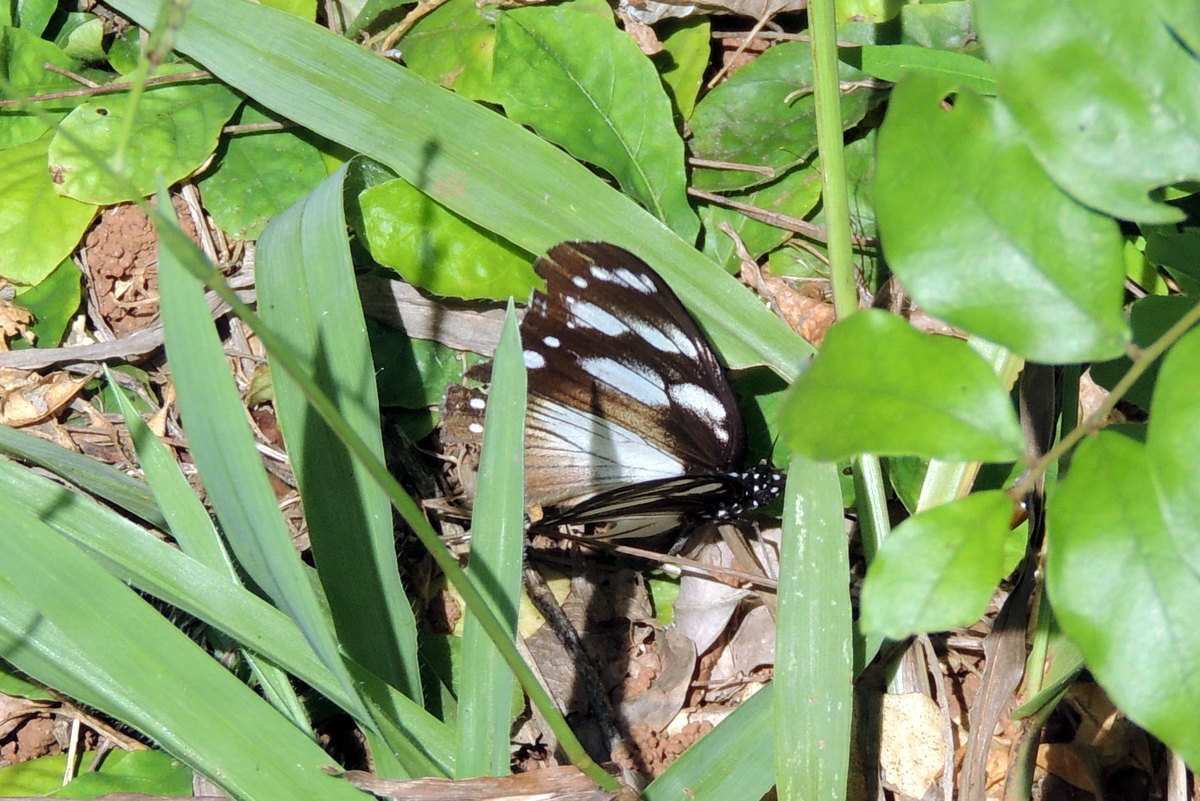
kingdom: Animalia
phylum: Arthropoda
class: Insecta
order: Lepidoptera
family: Nymphalidae
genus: Hypolimnas
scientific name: Hypolimnas dubius
